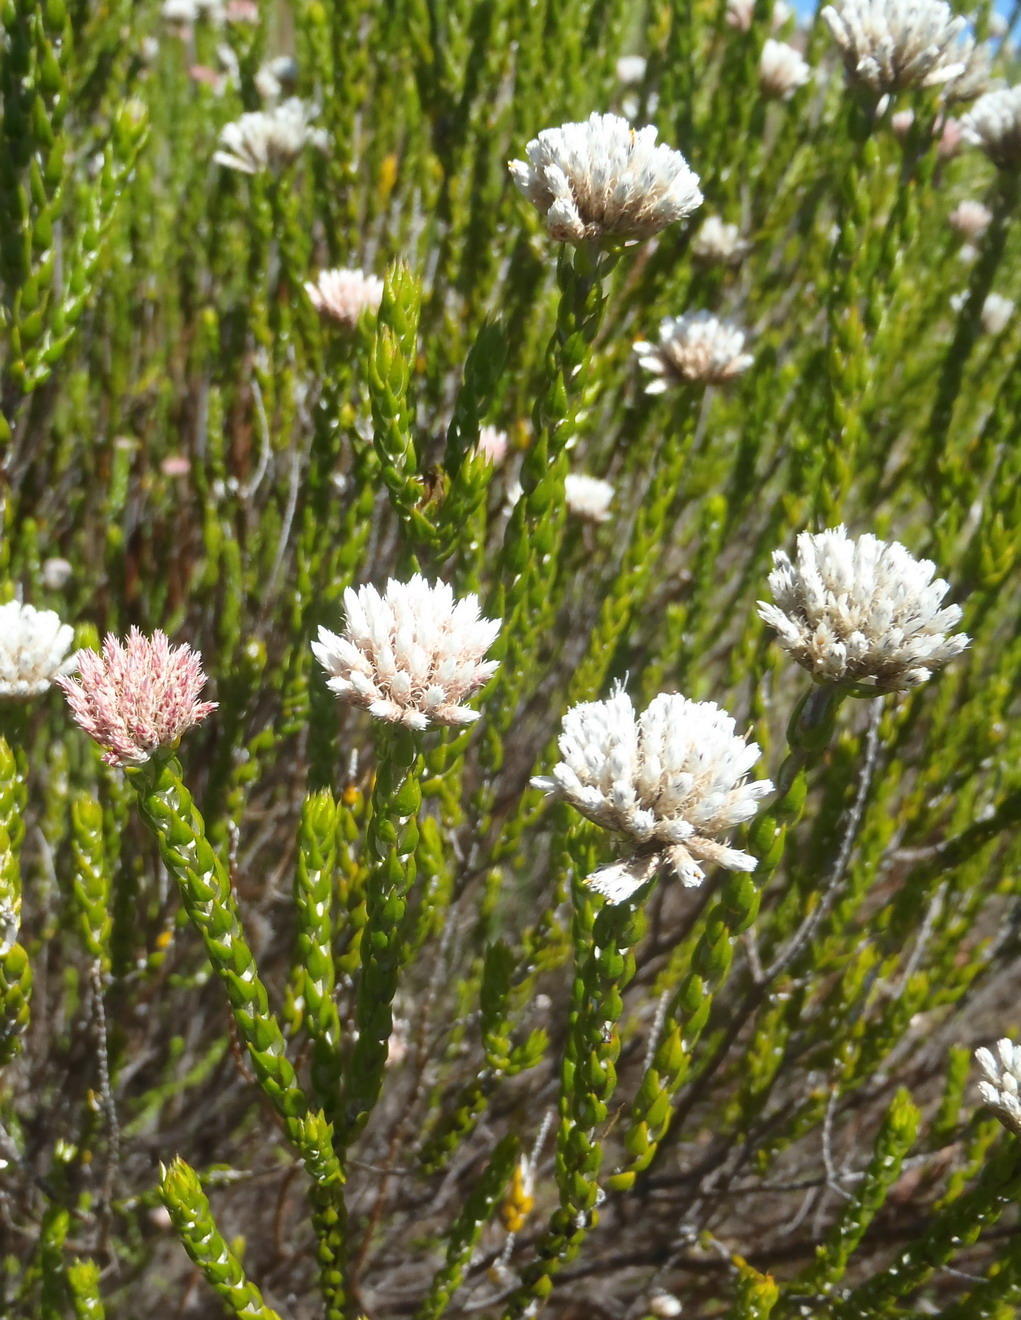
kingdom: Plantae
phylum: Tracheophyta
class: Magnoliopsida
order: Asterales
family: Asteraceae
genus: Metalasia
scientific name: Metalasia pulcherrima
